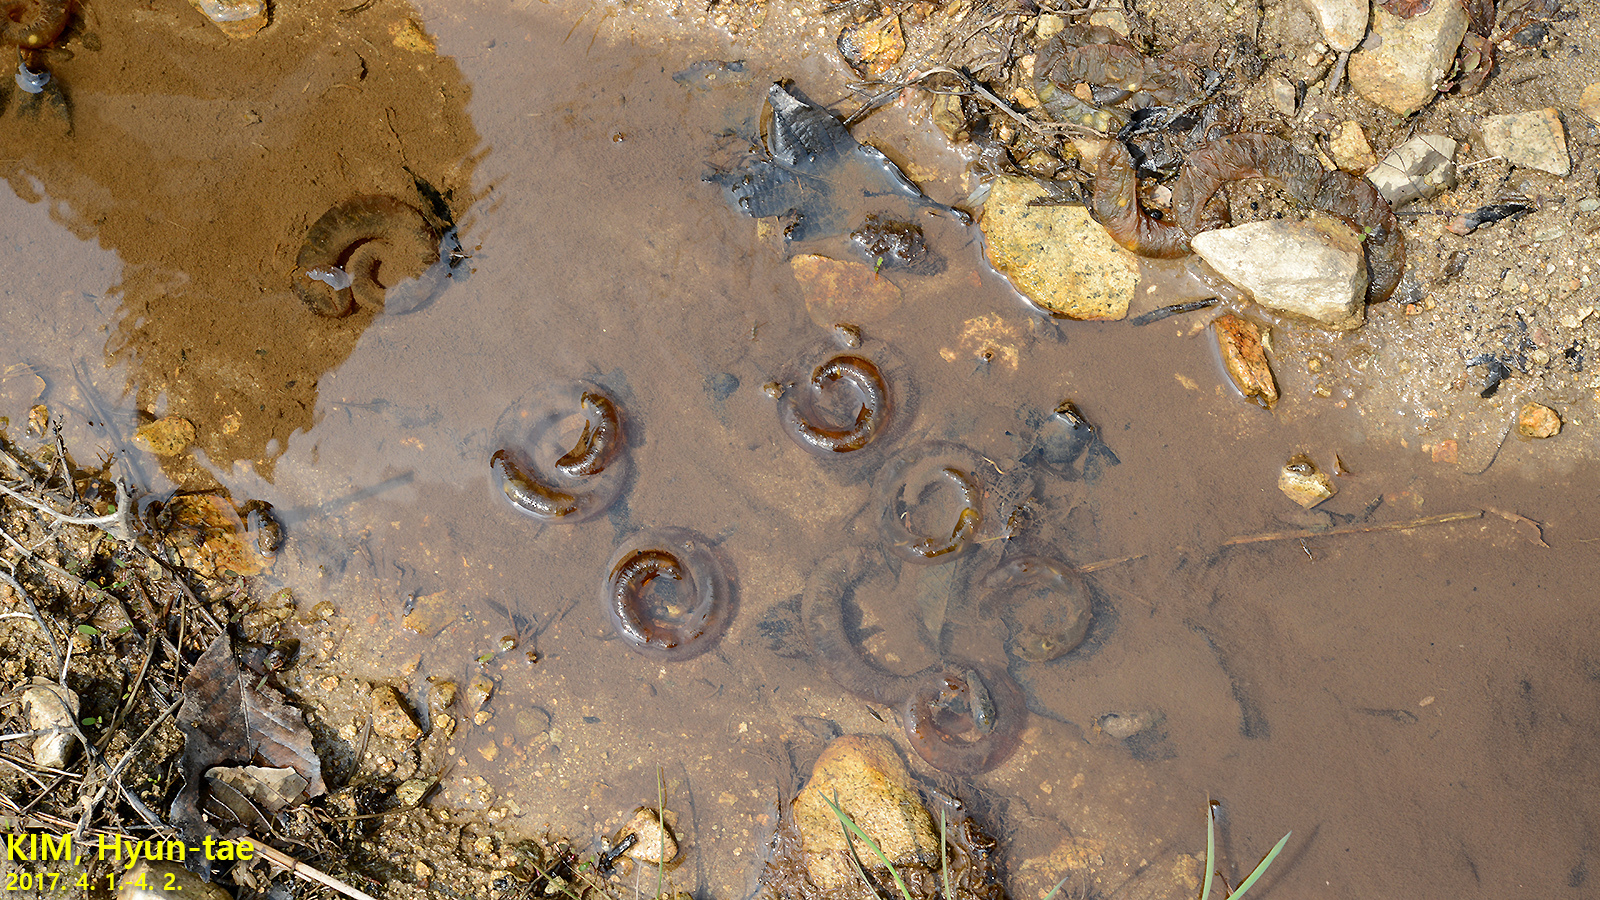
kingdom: Animalia
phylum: Chordata
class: Amphibia
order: Caudata
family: Hynobiidae
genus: Hynobius
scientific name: Hynobius quelpaertensis
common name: Cheju salamander
